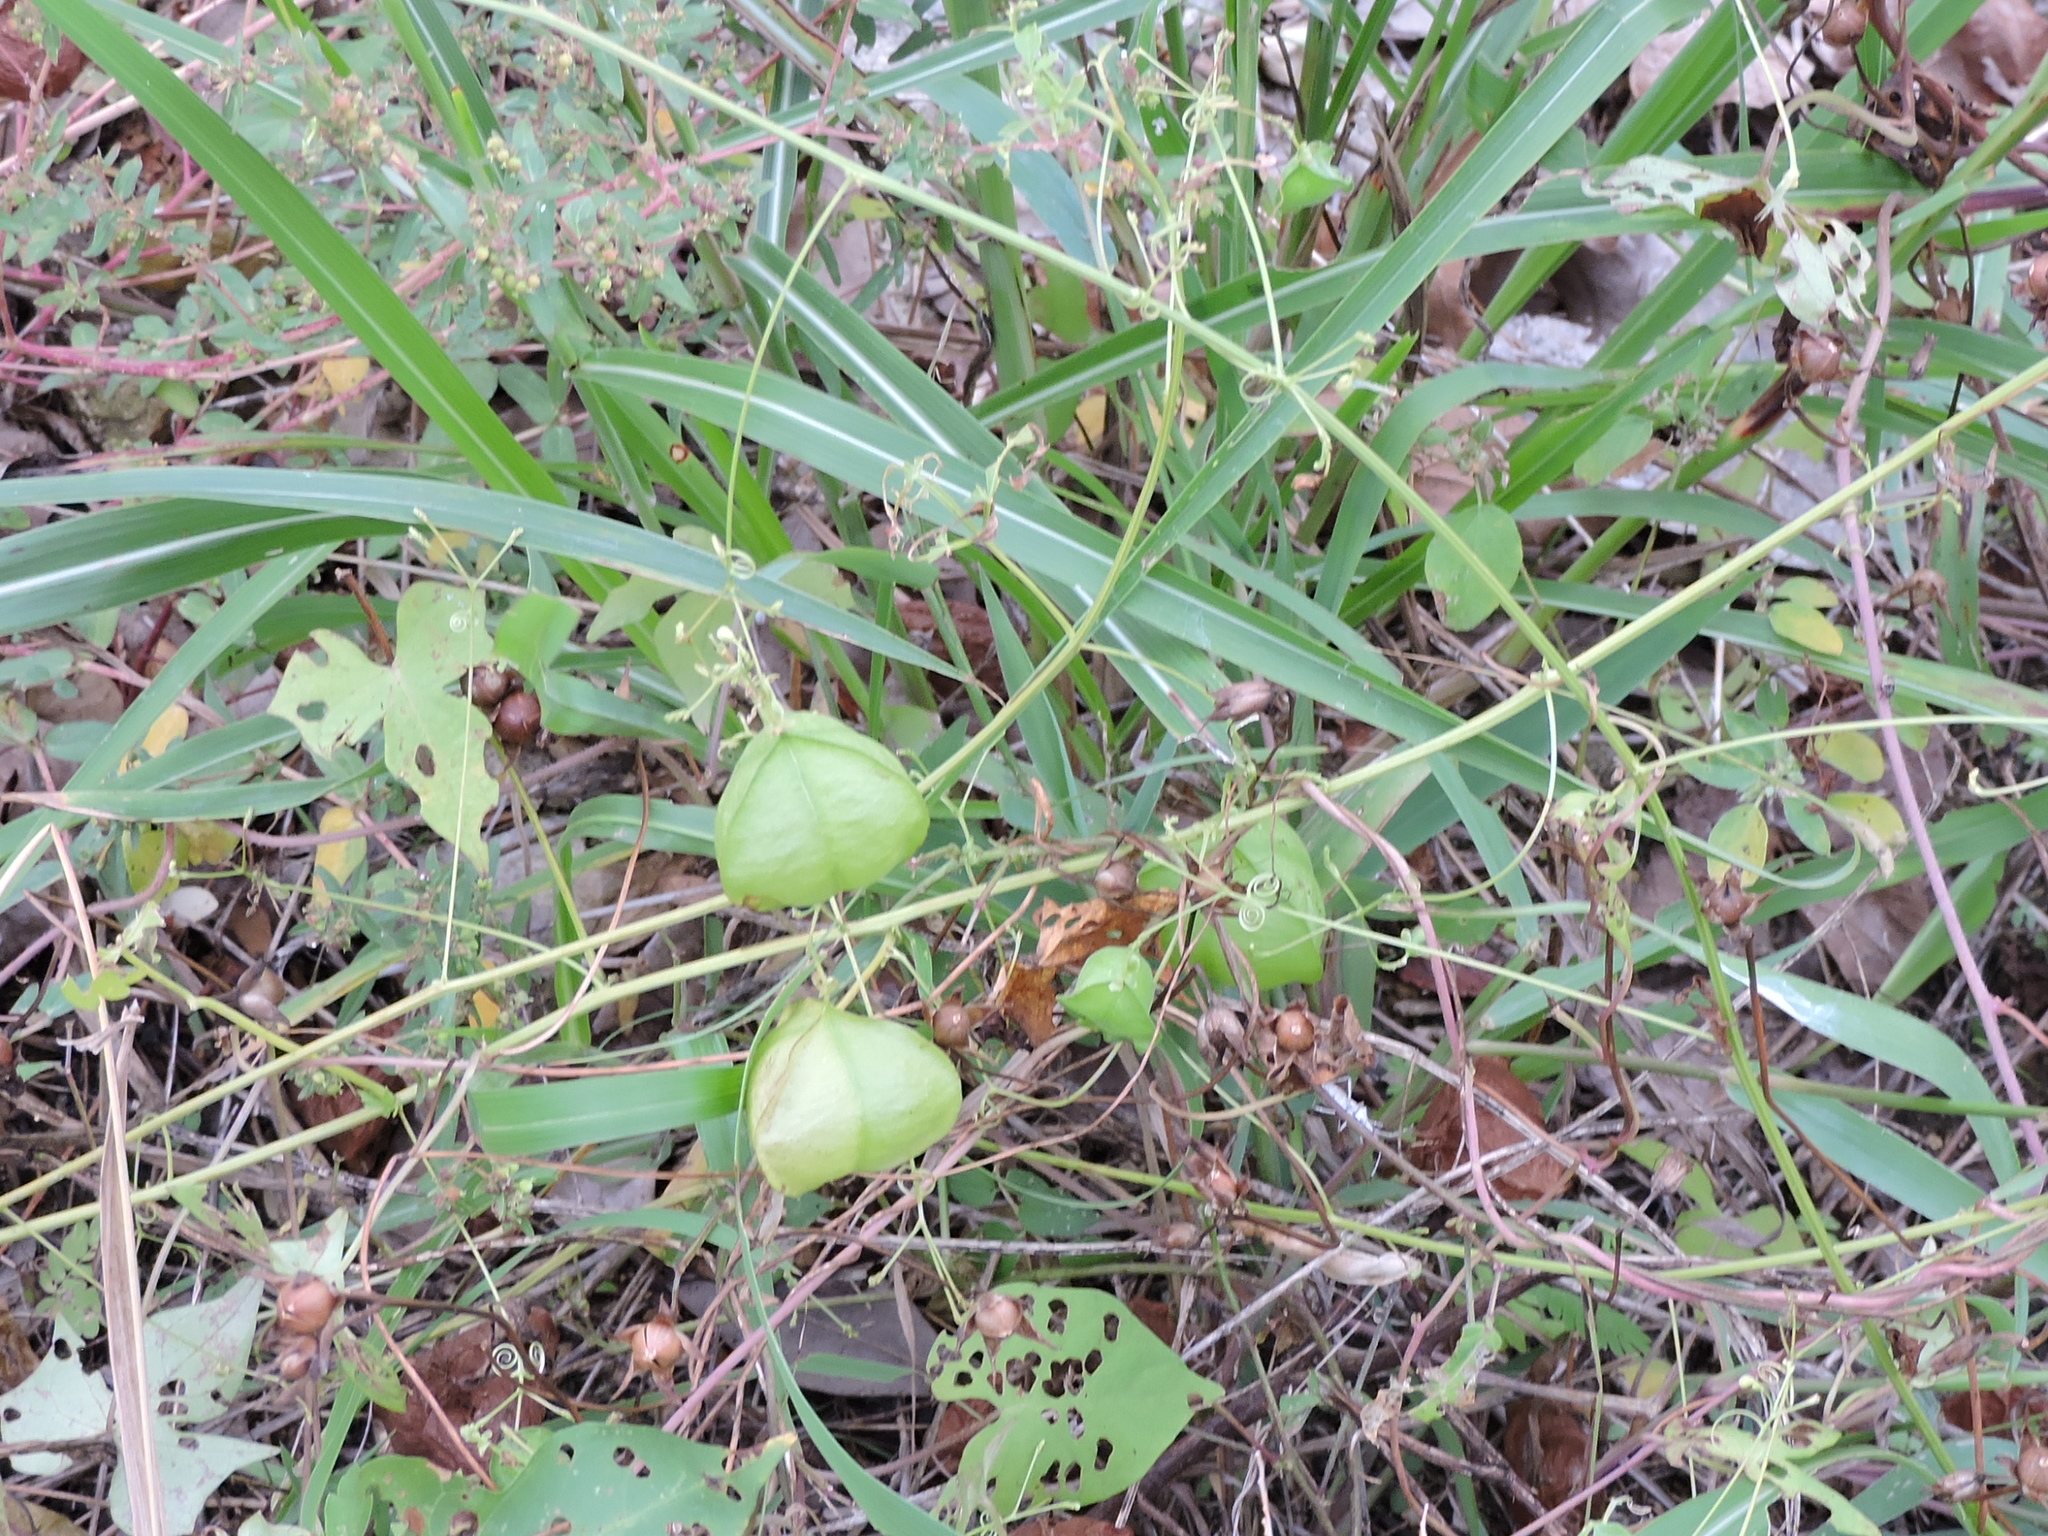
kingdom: Plantae
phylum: Tracheophyta
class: Magnoliopsida
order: Sapindales
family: Sapindaceae
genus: Cardiospermum
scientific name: Cardiospermum halicacabum
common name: Balloon vine
